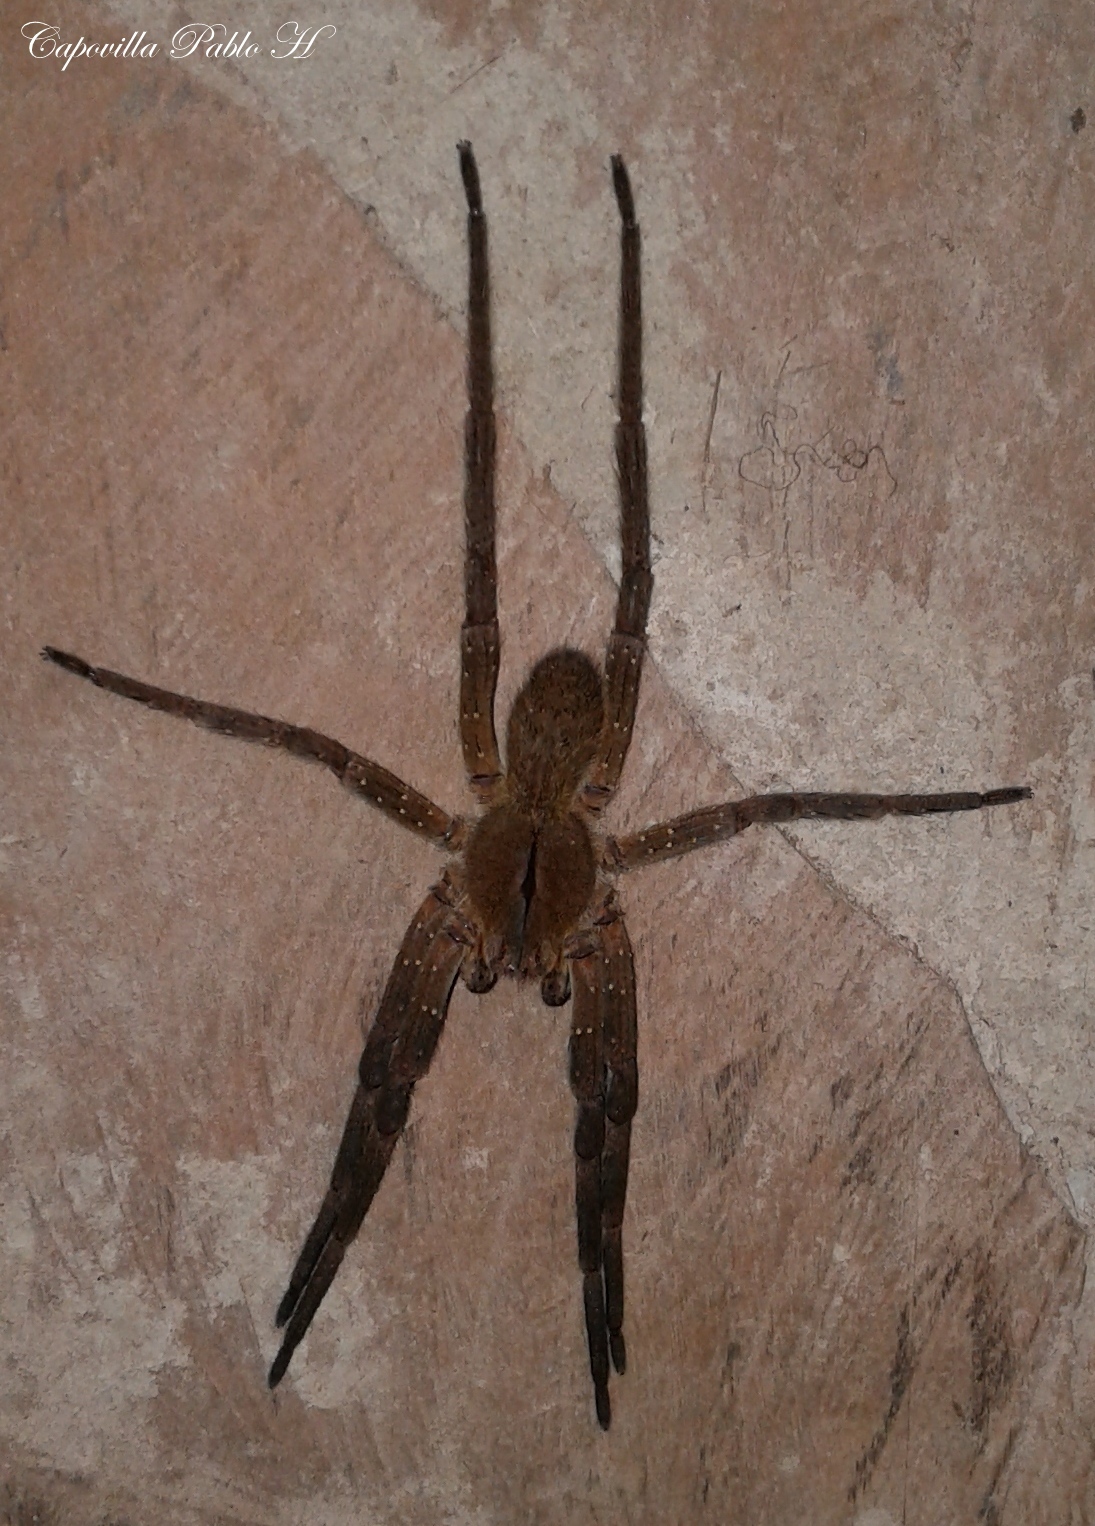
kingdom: Animalia
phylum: Arthropoda
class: Arachnida
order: Araneae
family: Ctenidae
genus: Phoneutria
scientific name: Phoneutria nigriventer
